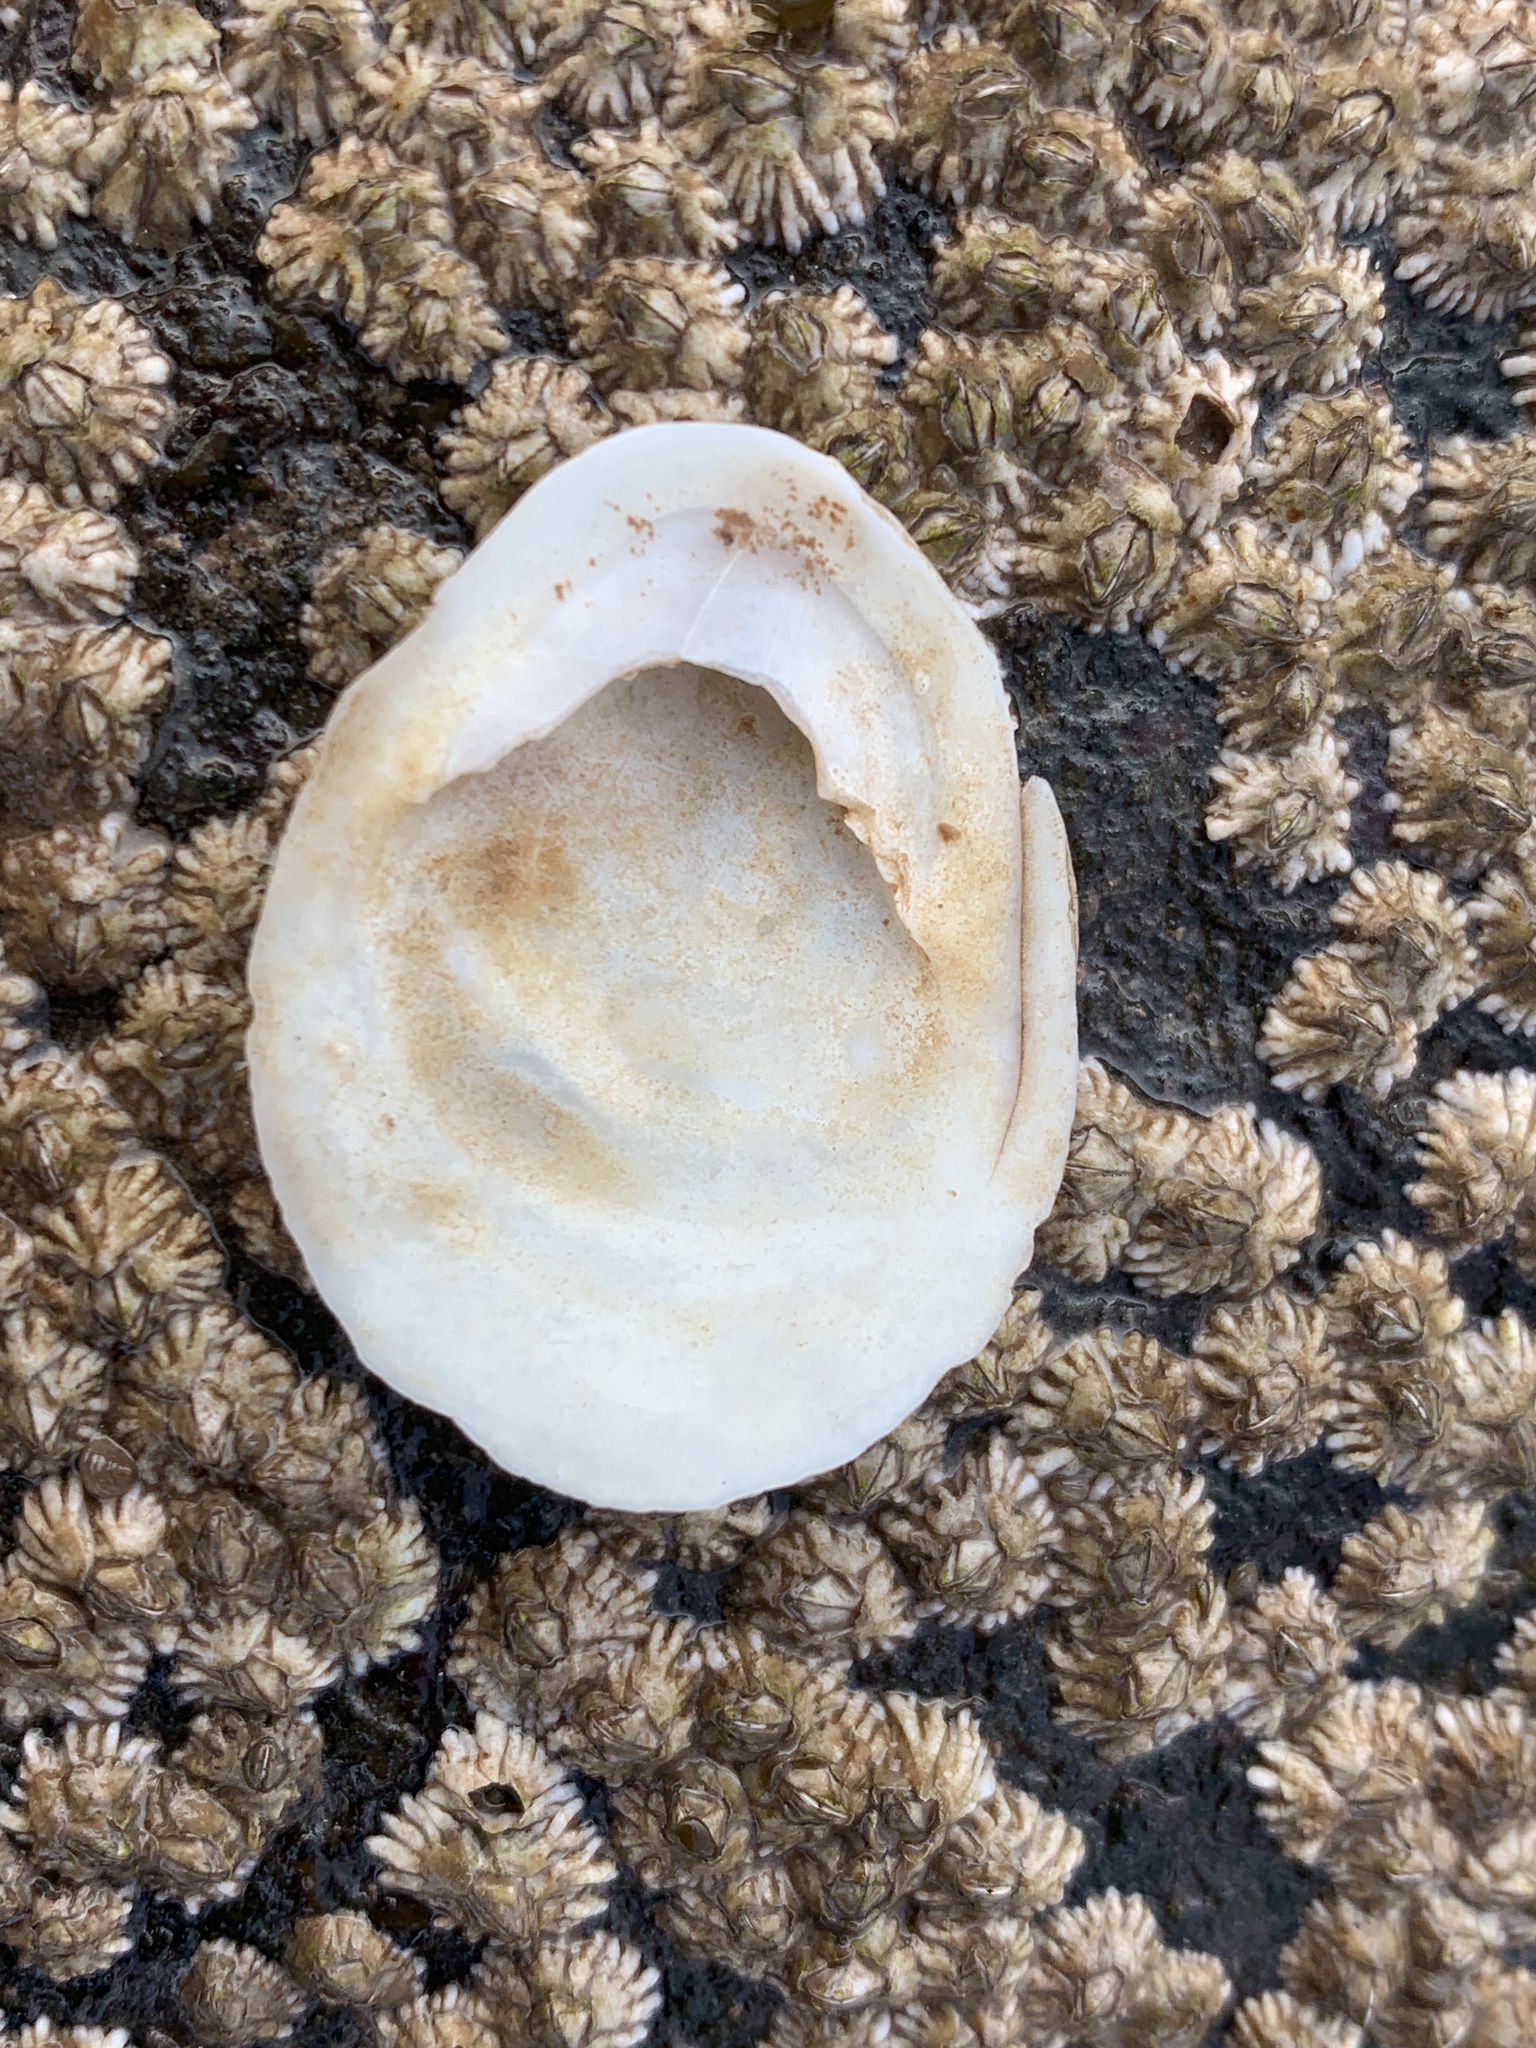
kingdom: Animalia
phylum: Mollusca
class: Gastropoda
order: Littorinimorpha
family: Calyptraeidae
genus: Crepidula
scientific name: Crepidula plana
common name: Eastern white slippersnail
